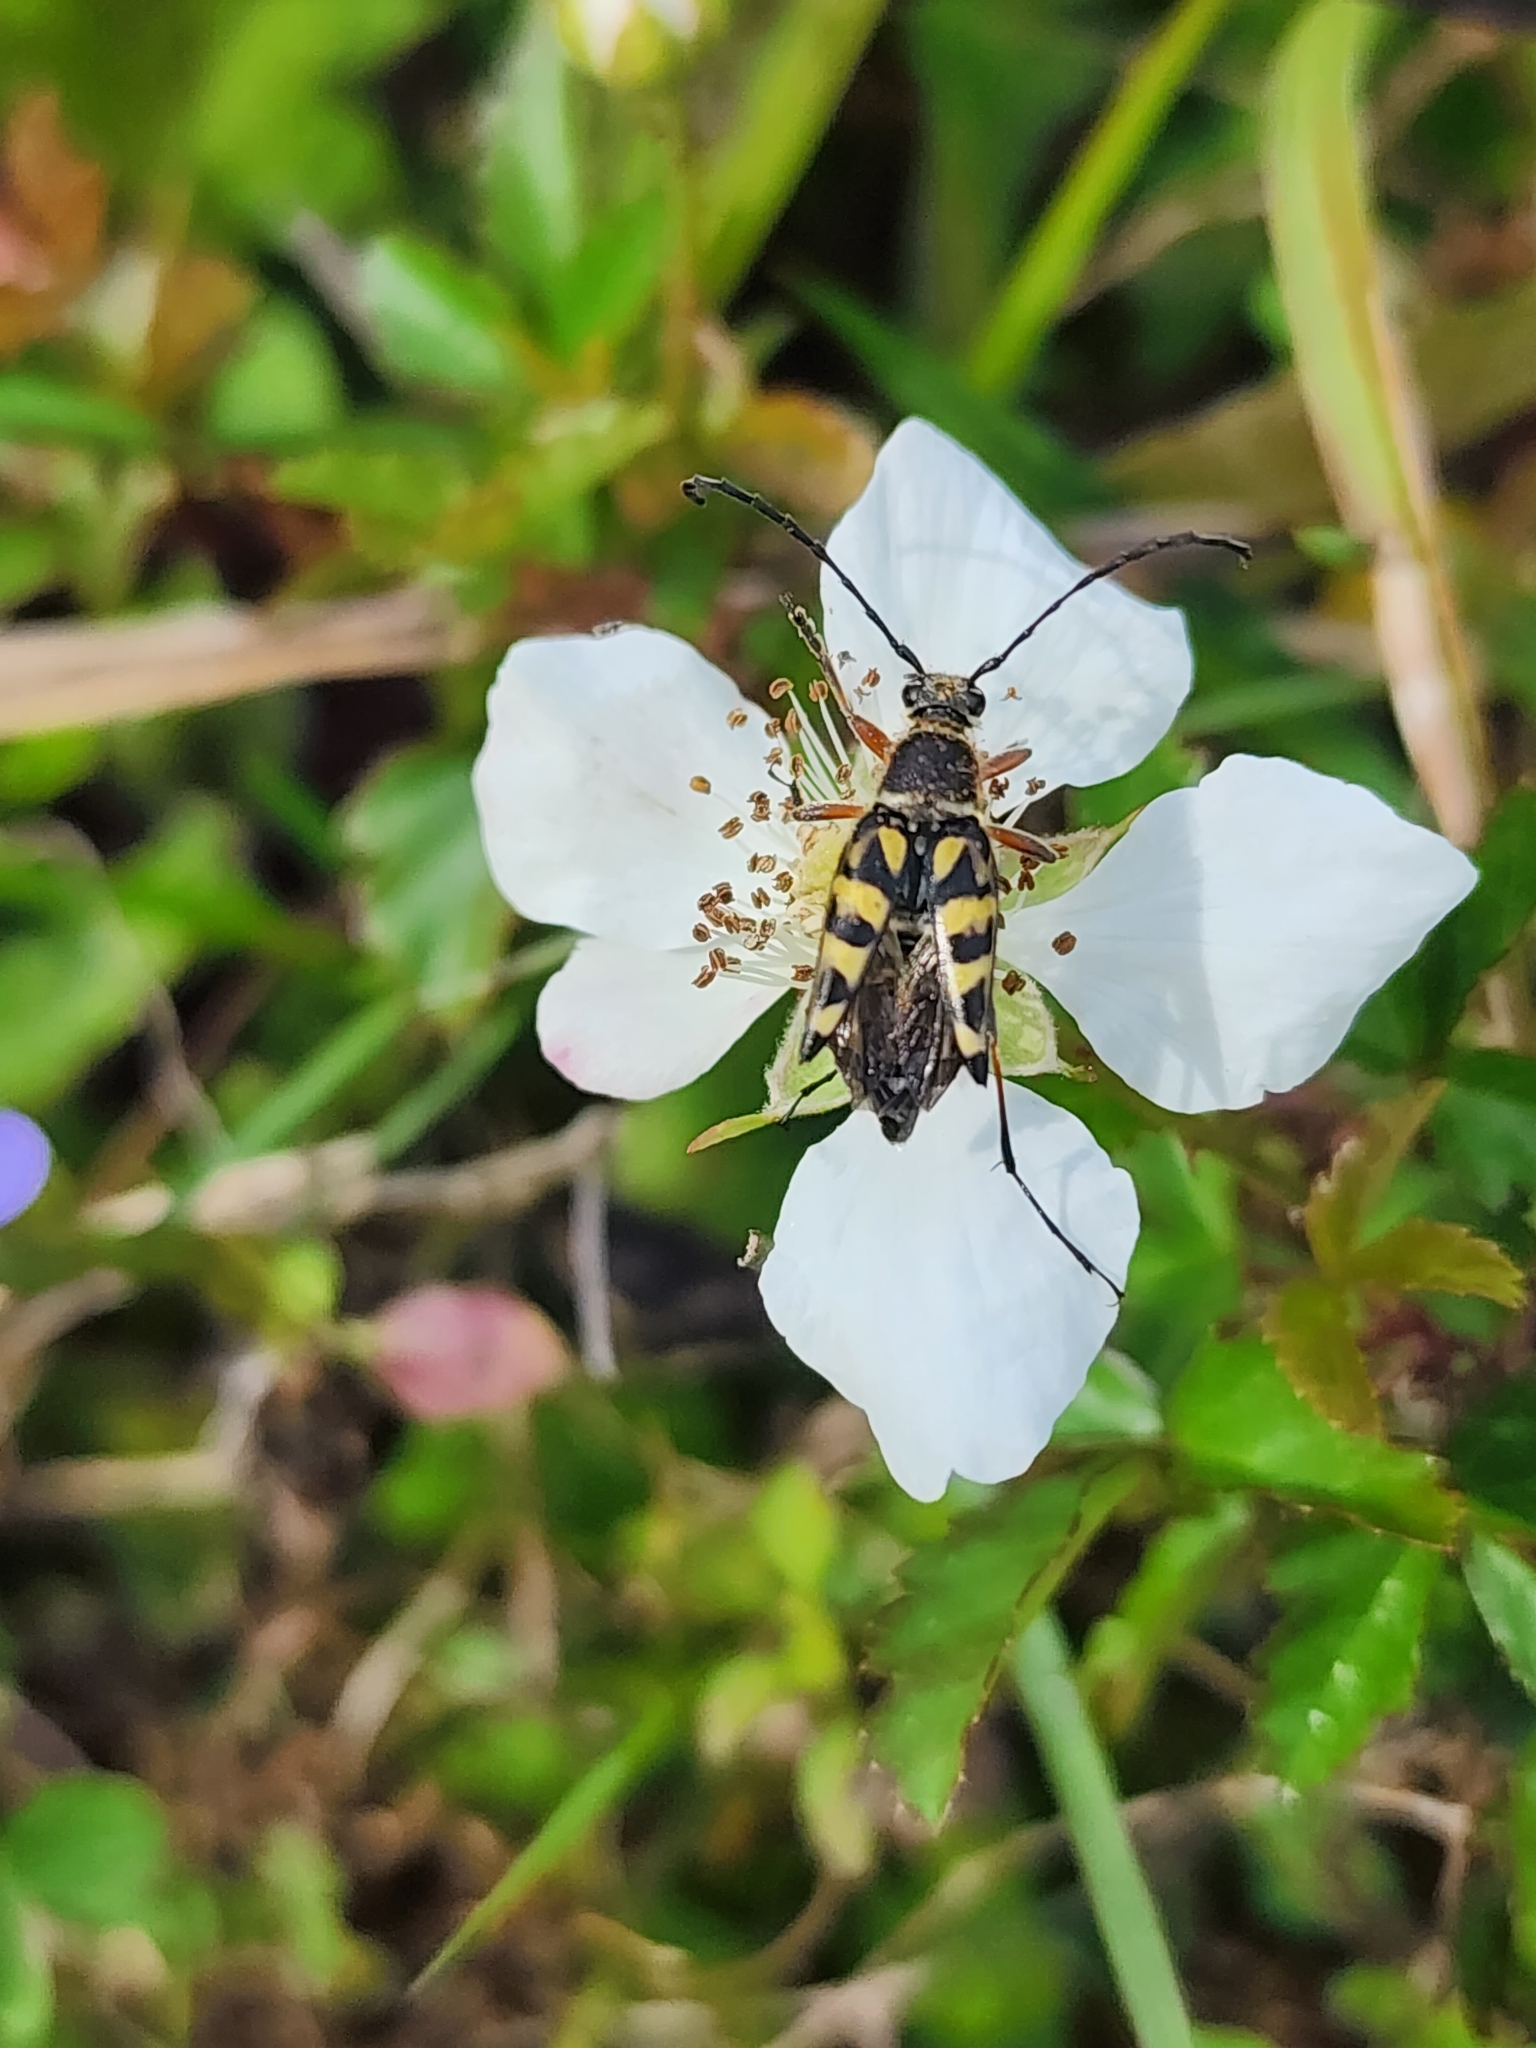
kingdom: Animalia
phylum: Arthropoda
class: Insecta
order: Coleoptera
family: Cerambycidae
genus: Typocerus
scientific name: Typocerus zebra
